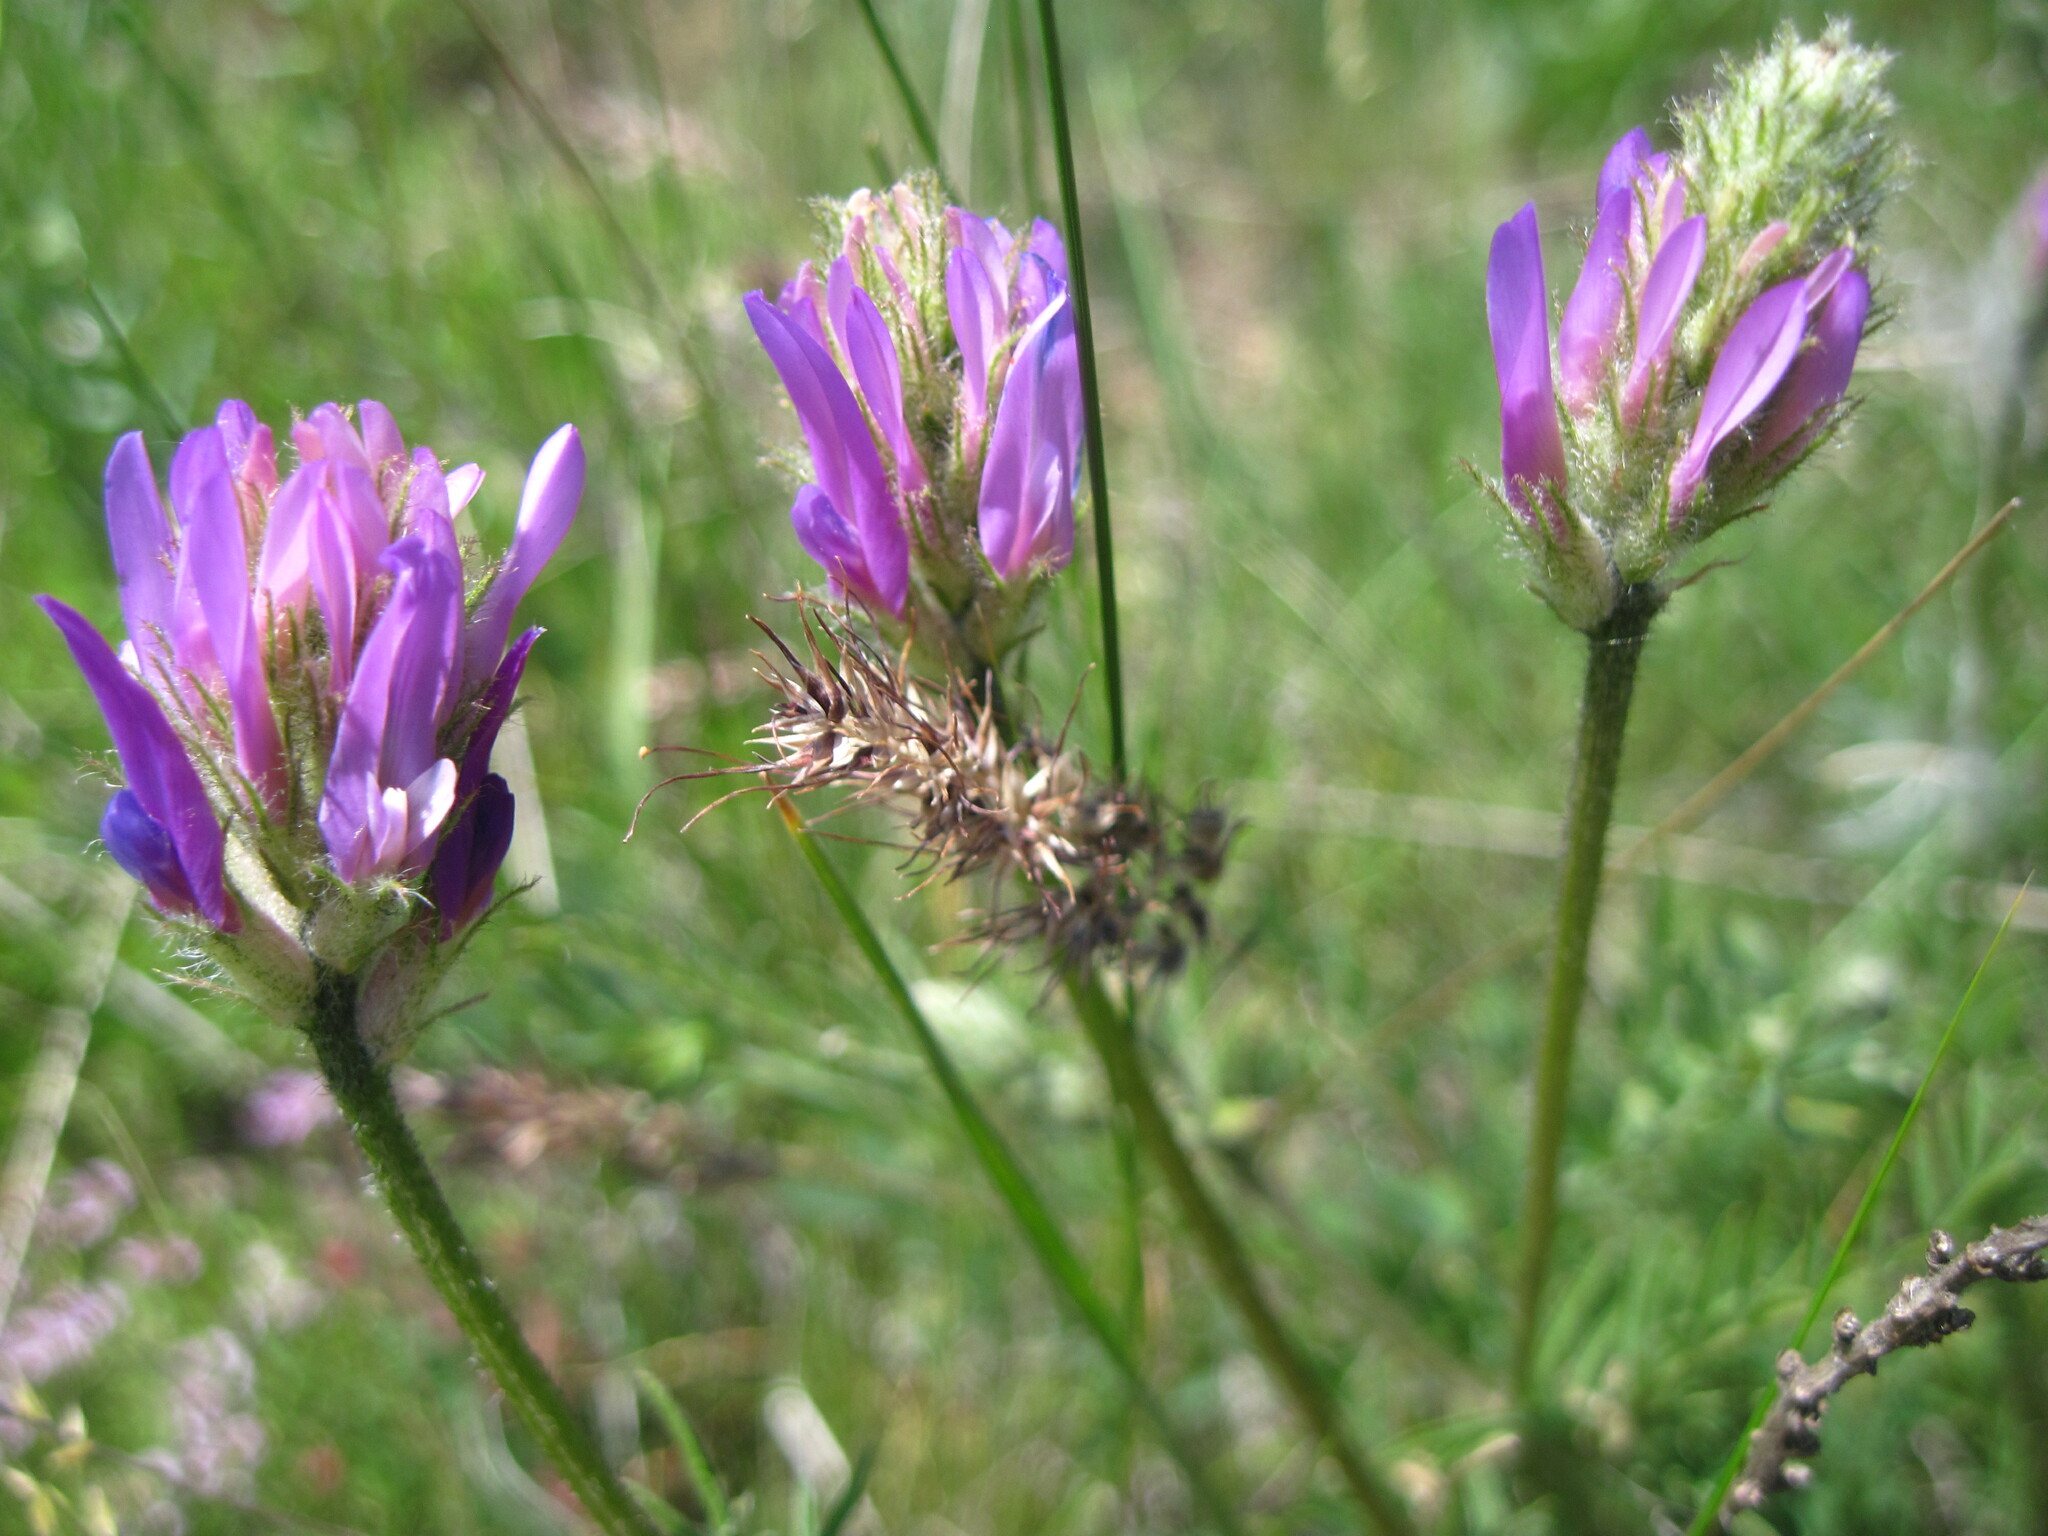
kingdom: Plantae
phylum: Tracheophyta
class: Magnoliopsida
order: Fabales
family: Fabaceae
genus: Astragalus
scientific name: Astragalus onobrychis
